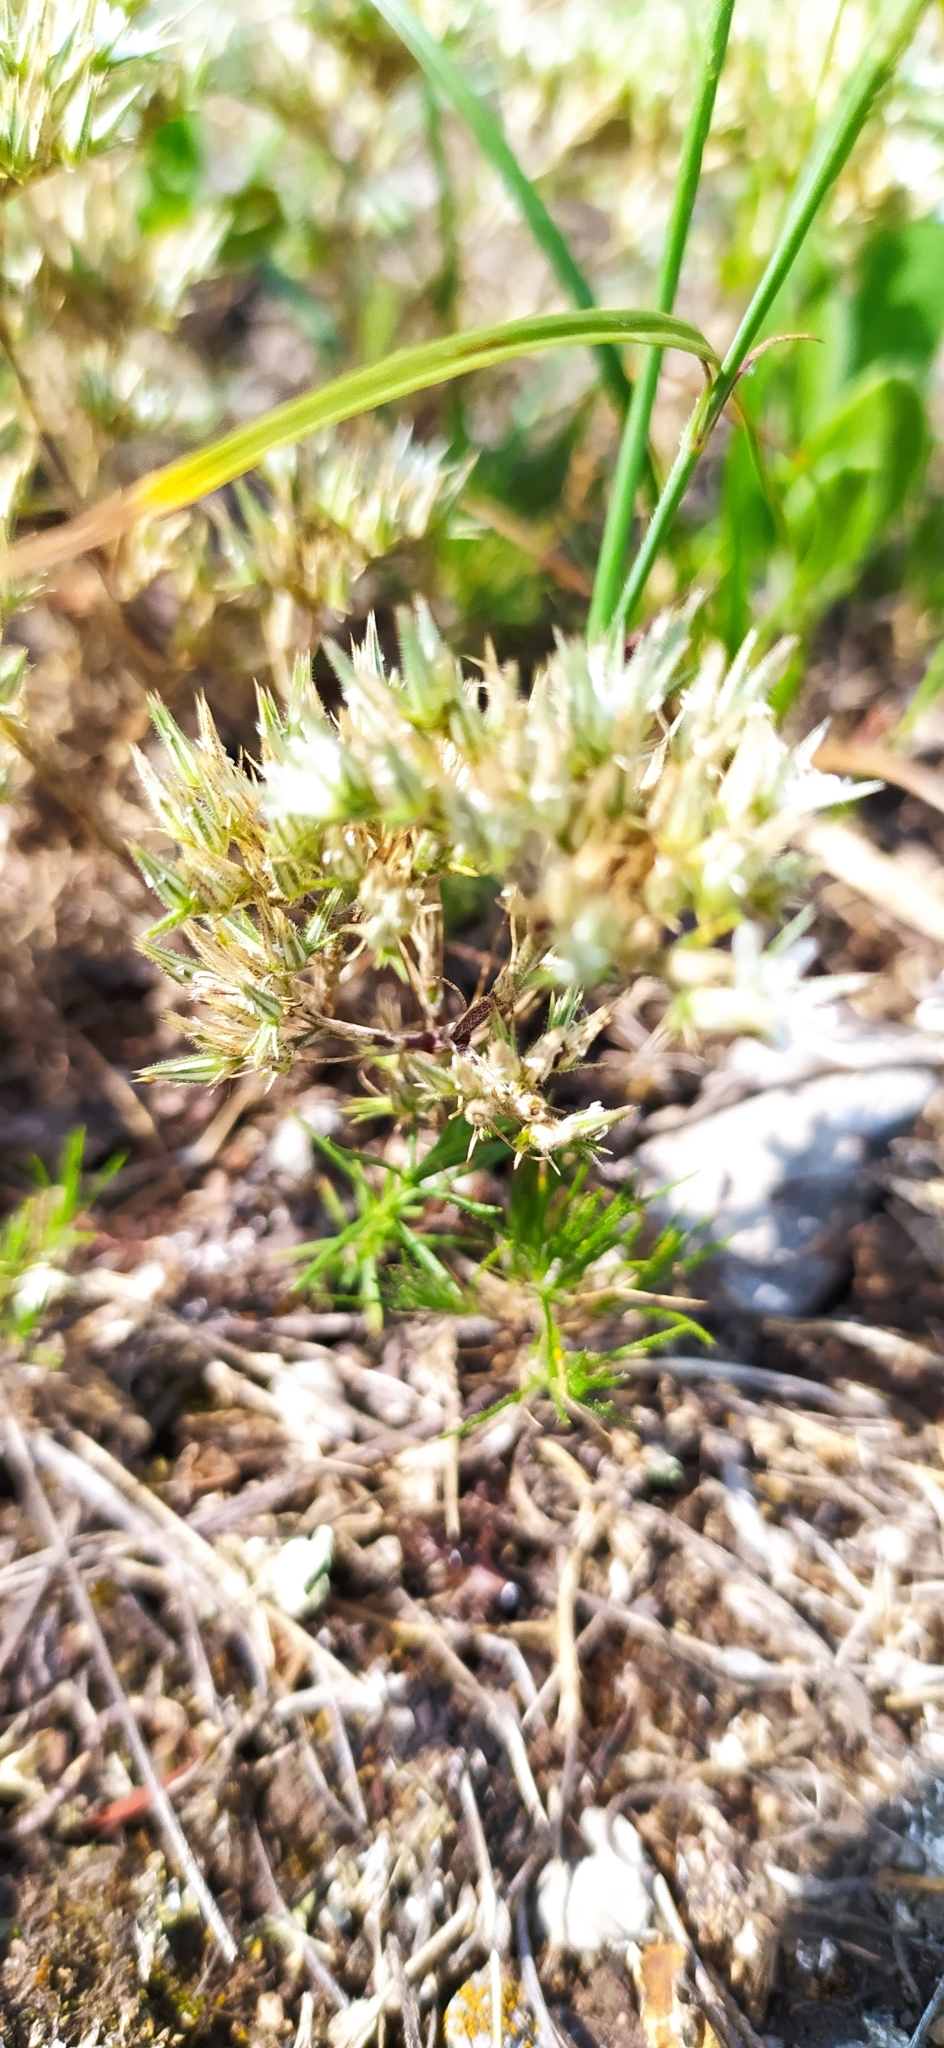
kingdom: Plantae
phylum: Tracheophyta
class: Magnoliopsida
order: Caryophyllales
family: Caryophyllaceae
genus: Minuartia
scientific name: Minuartia glomerata
